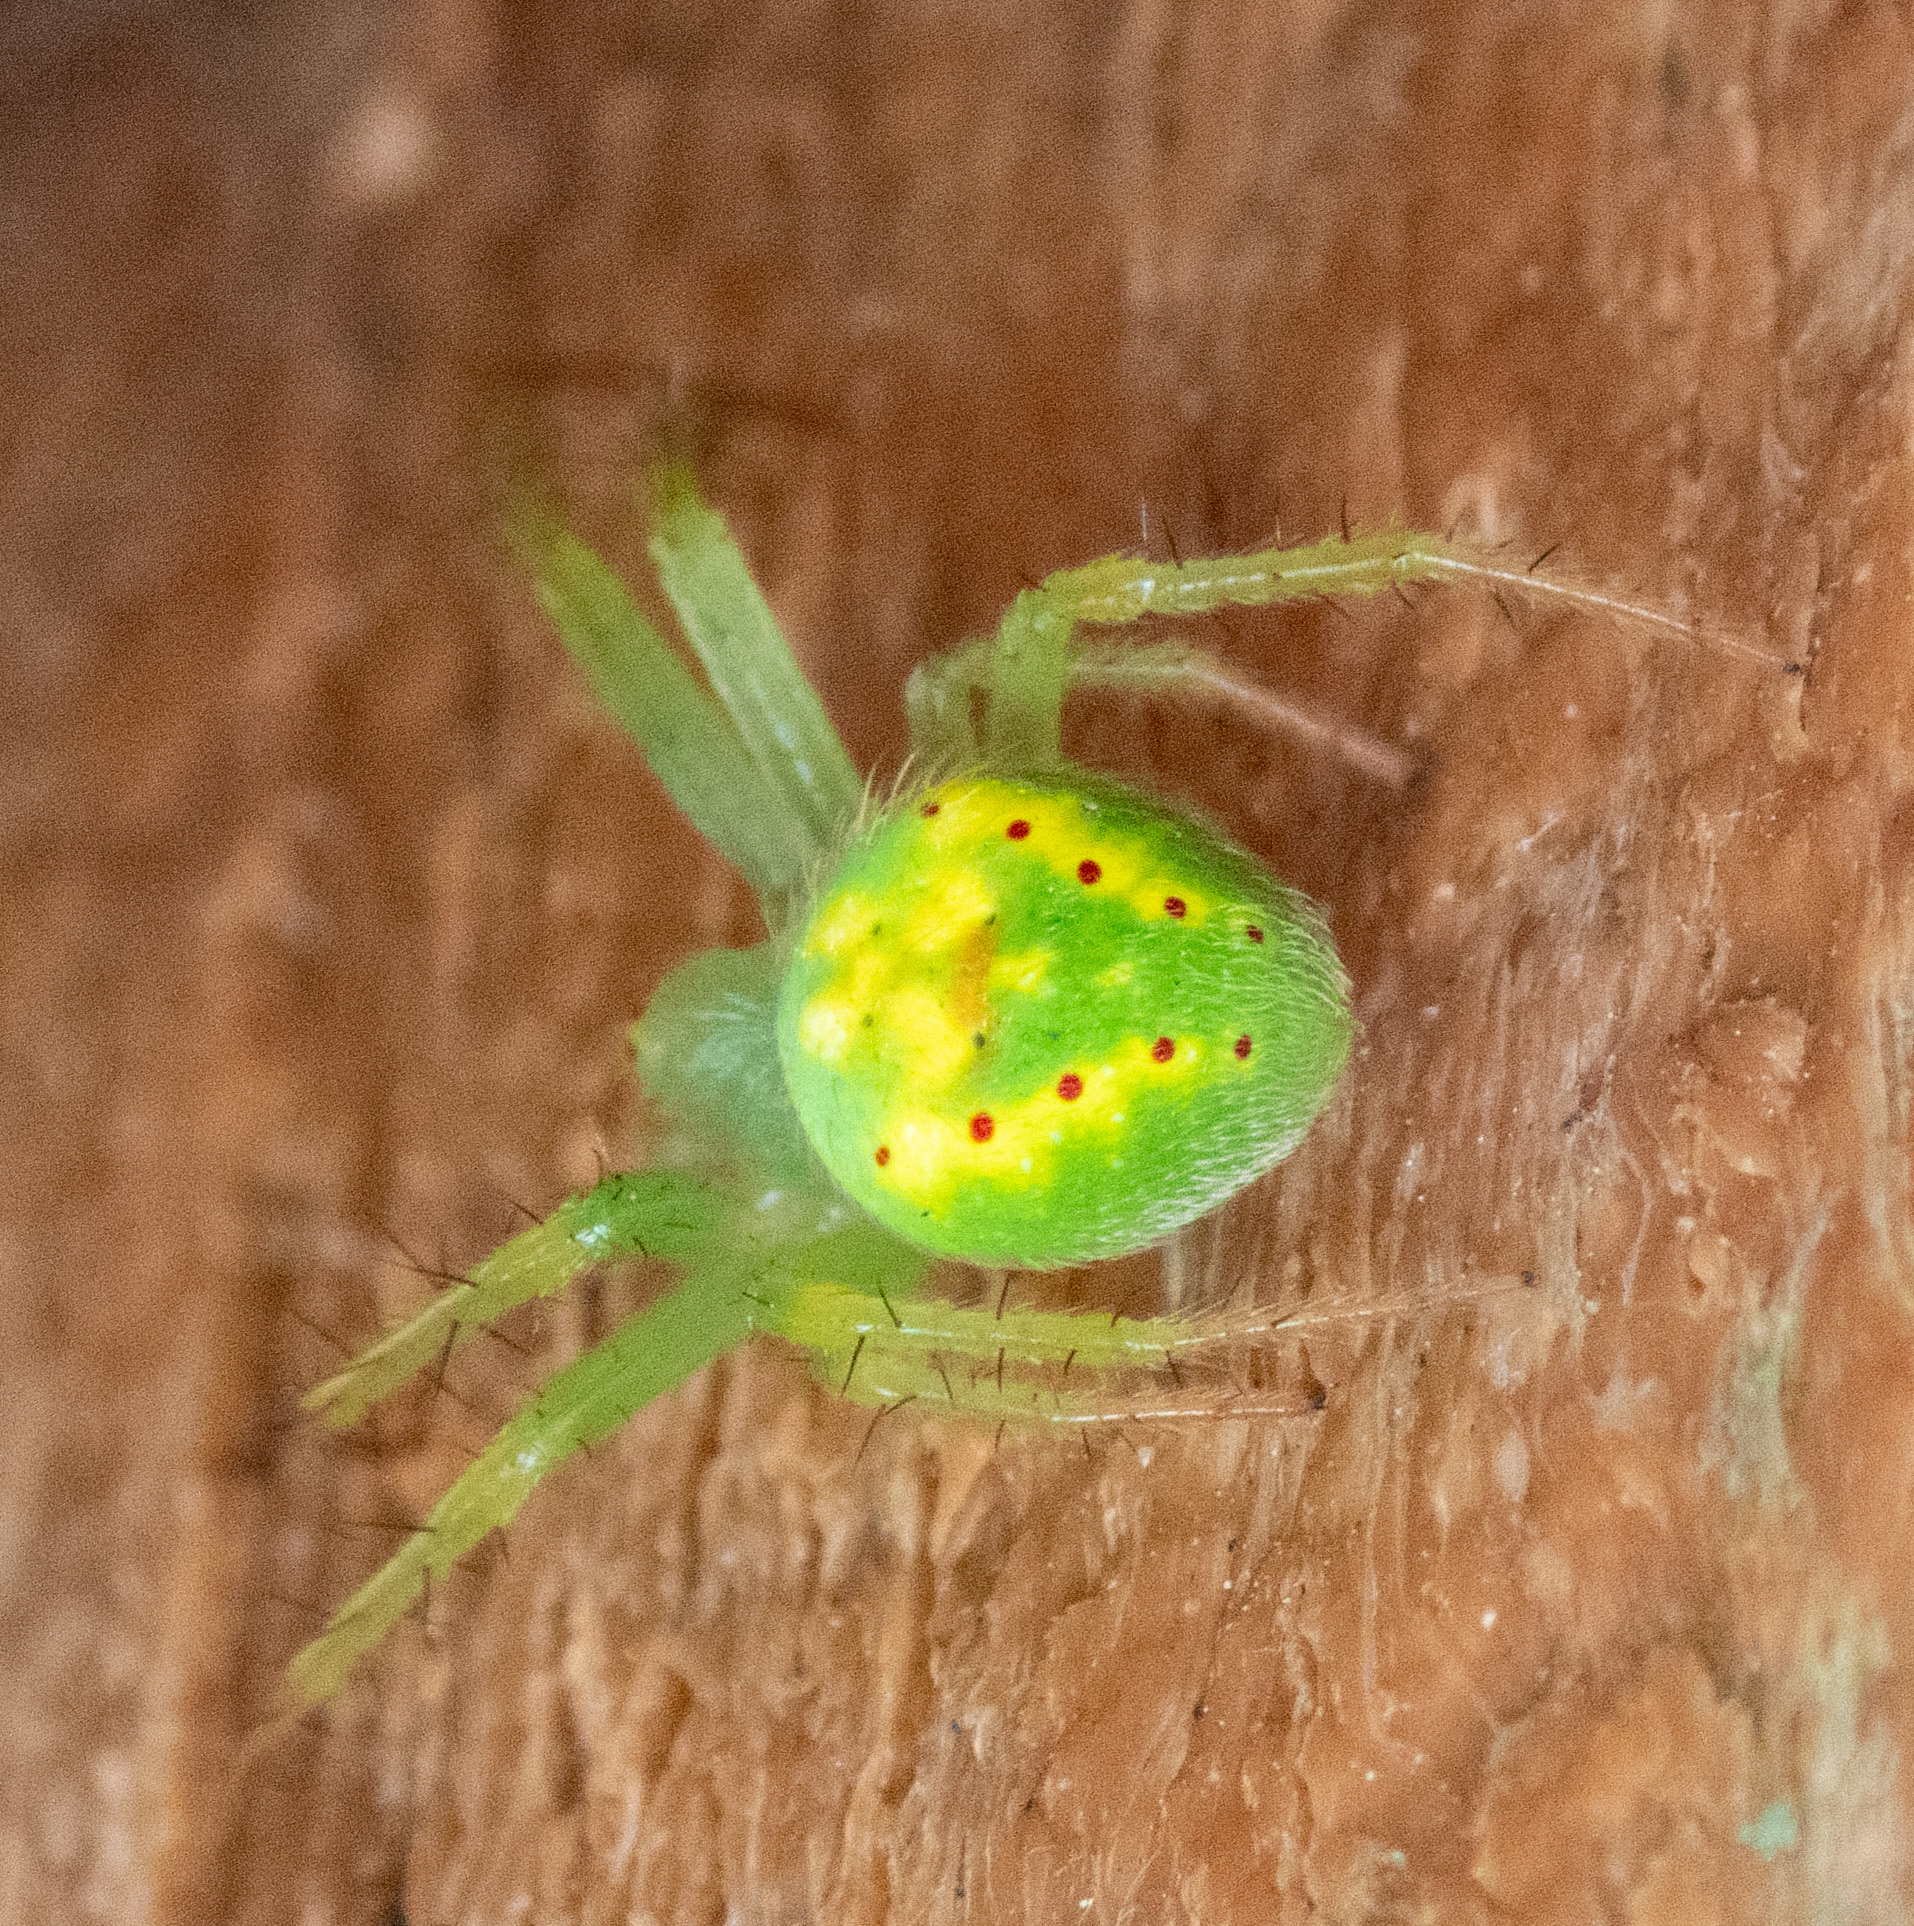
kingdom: Animalia
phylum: Arthropoda
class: Arachnida
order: Araneae
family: Araneidae
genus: Araneus
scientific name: Araneus cingulatus
